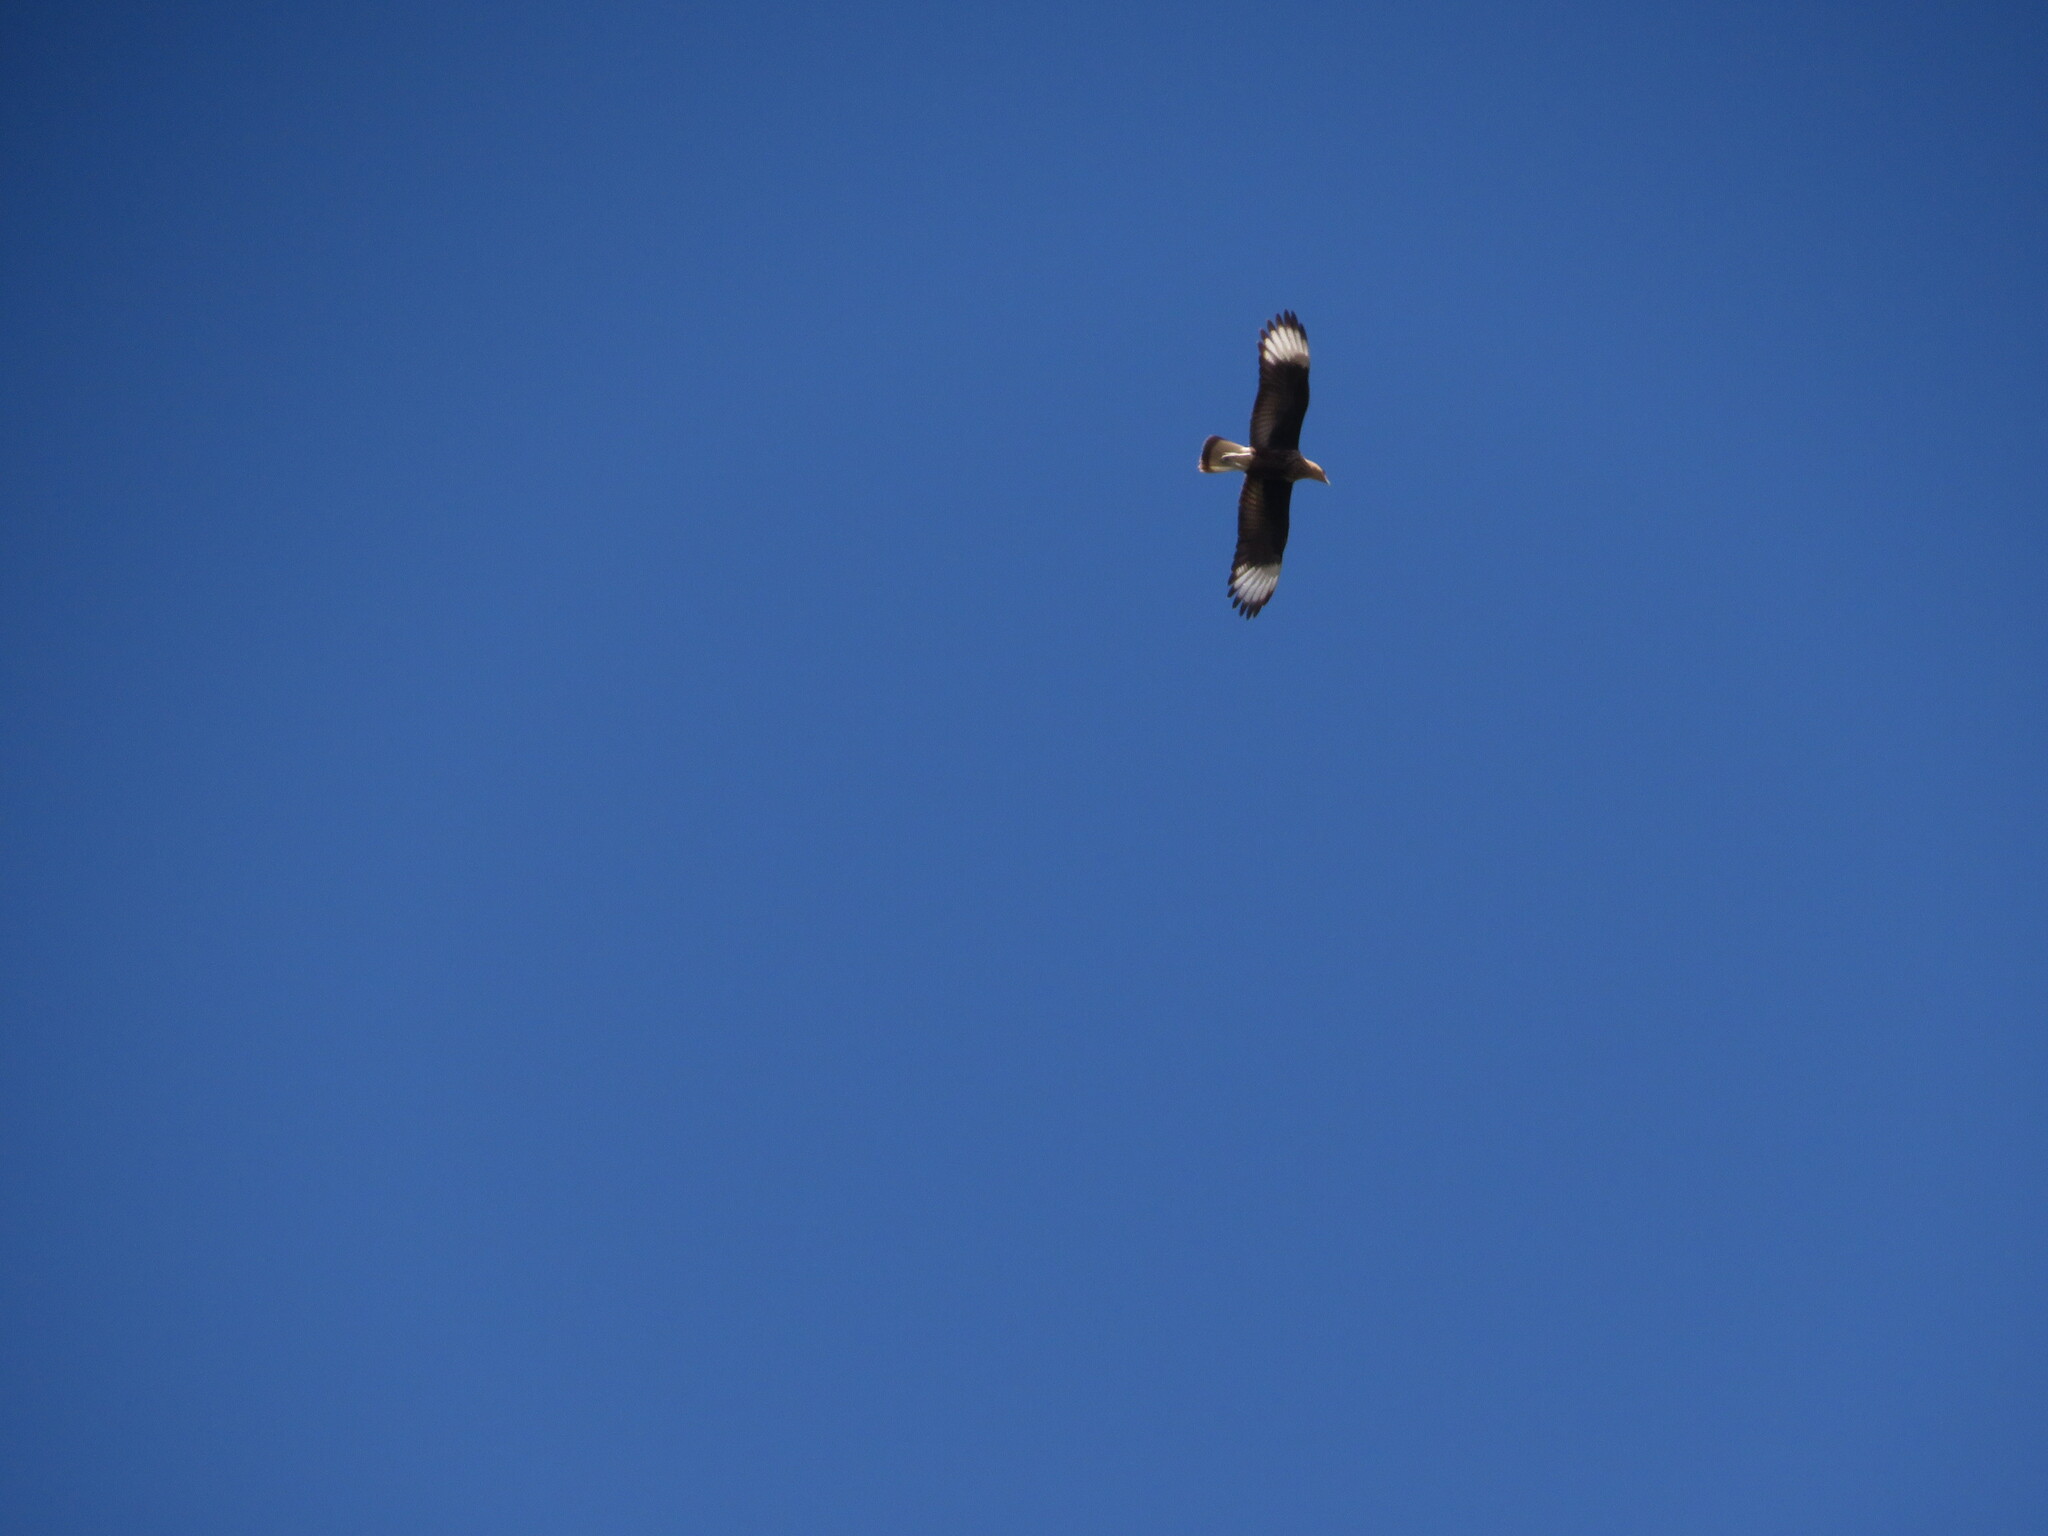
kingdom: Animalia
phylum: Chordata
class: Aves
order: Falconiformes
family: Falconidae
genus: Caracara
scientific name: Caracara plancus
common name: Southern caracara
